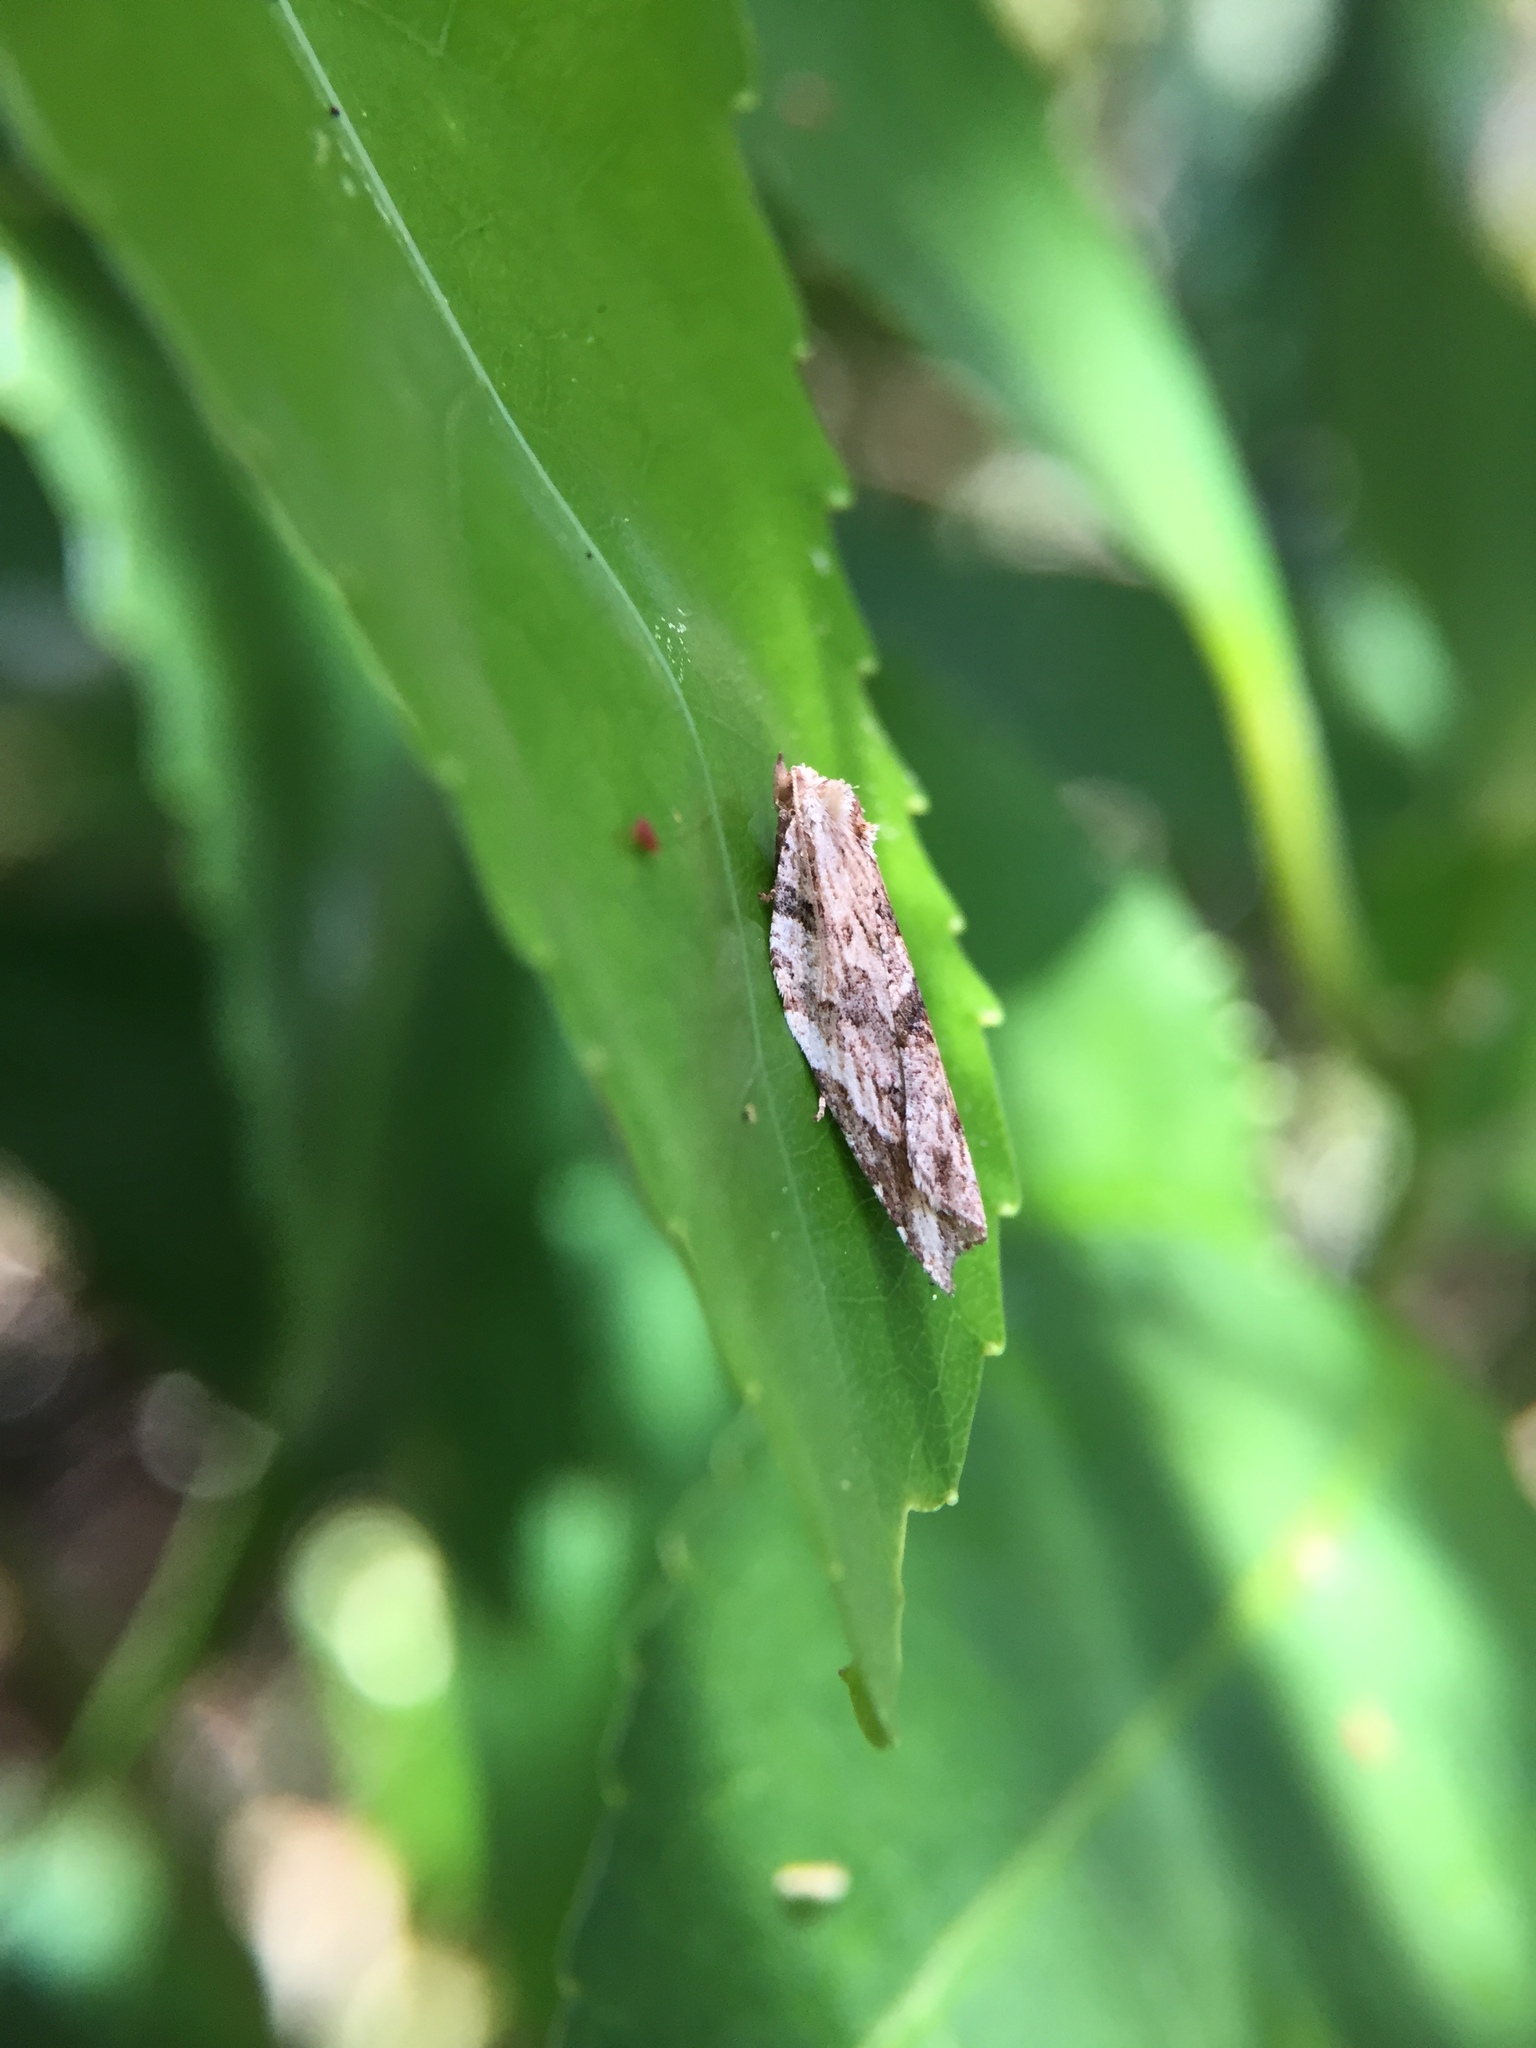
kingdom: Animalia
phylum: Arthropoda
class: Insecta
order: Lepidoptera
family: Tortricidae
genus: Epalxiphora
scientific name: Epalxiphora axenana
